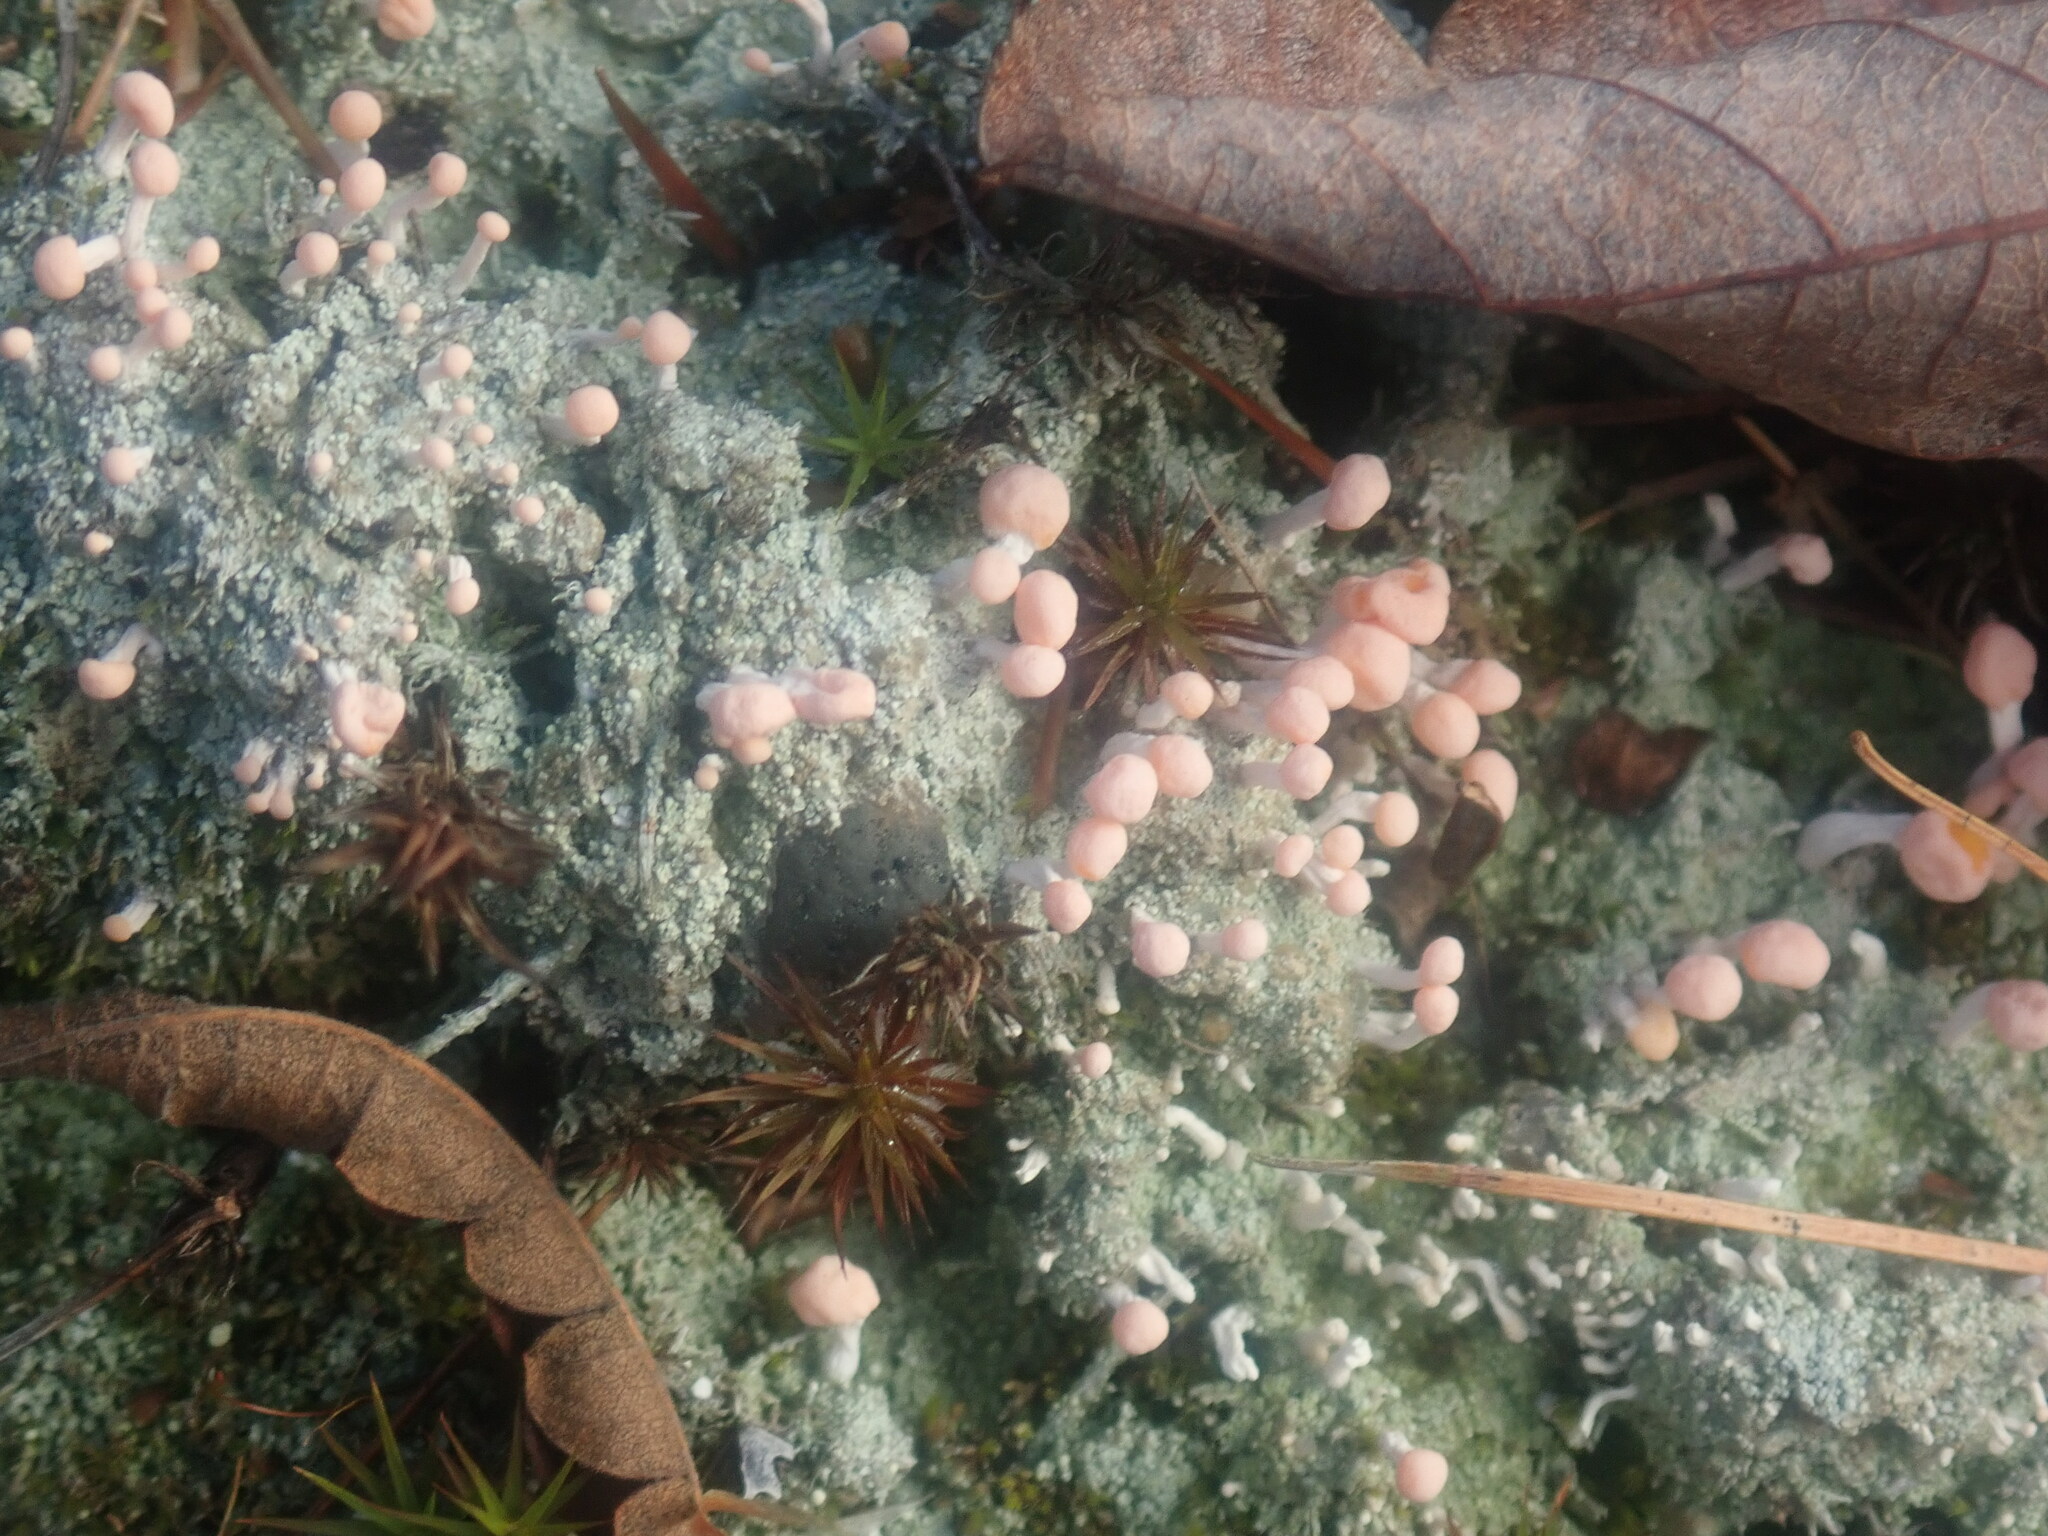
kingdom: Fungi
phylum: Ascomycota
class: Lecanoromycetes
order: Pertusariales
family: Icmadophilaceae
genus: Dibaeis
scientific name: Dibaeis baeomyces
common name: Pink earth lichen
